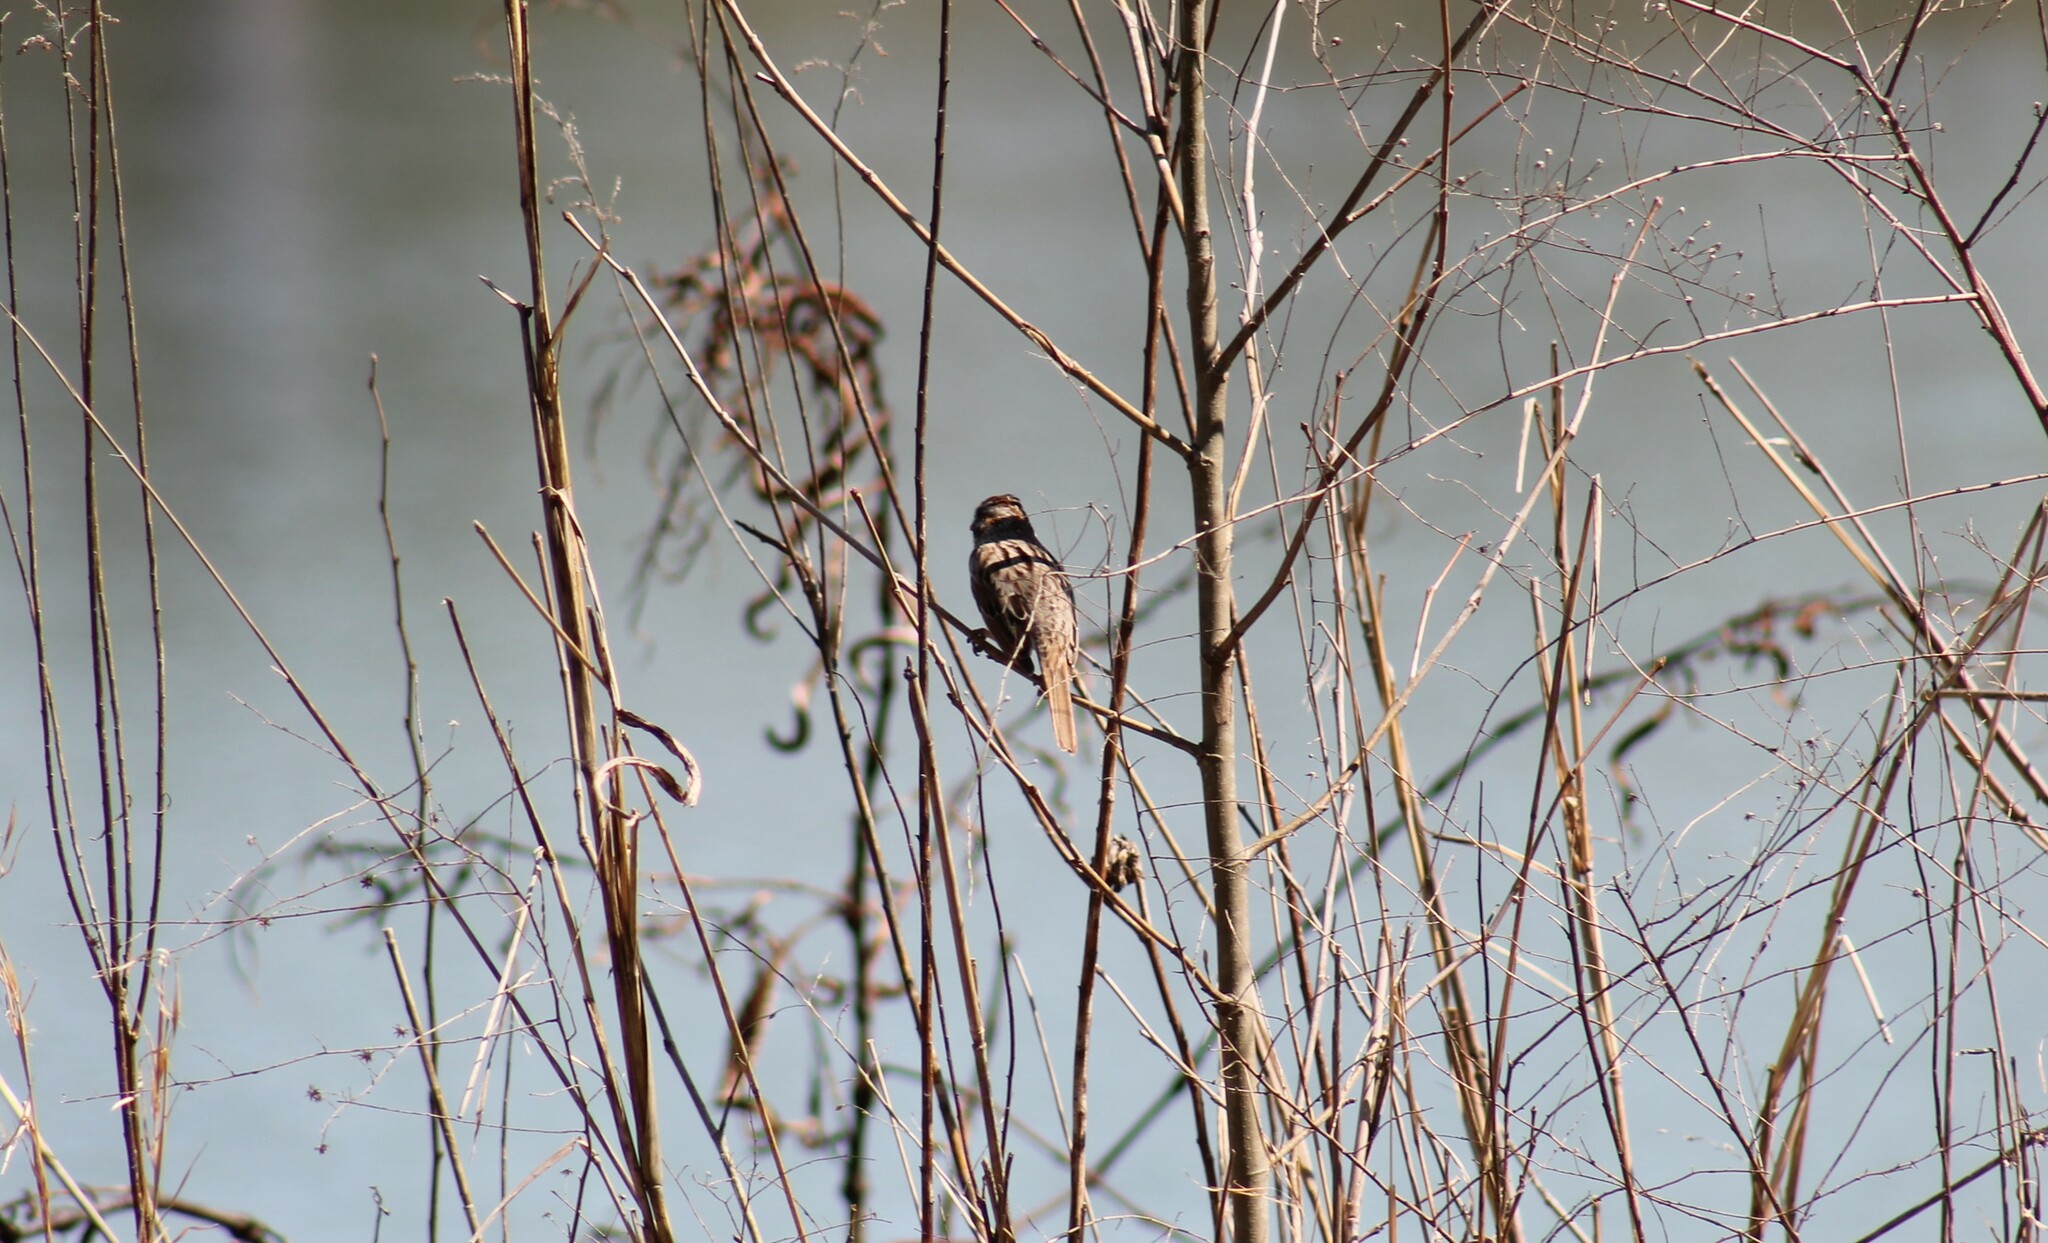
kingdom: Animalia
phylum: Chordata
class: Aves
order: Passeriformes
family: Passerellidae
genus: Melospiza
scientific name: Melospiza melodia
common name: Song sparrow
